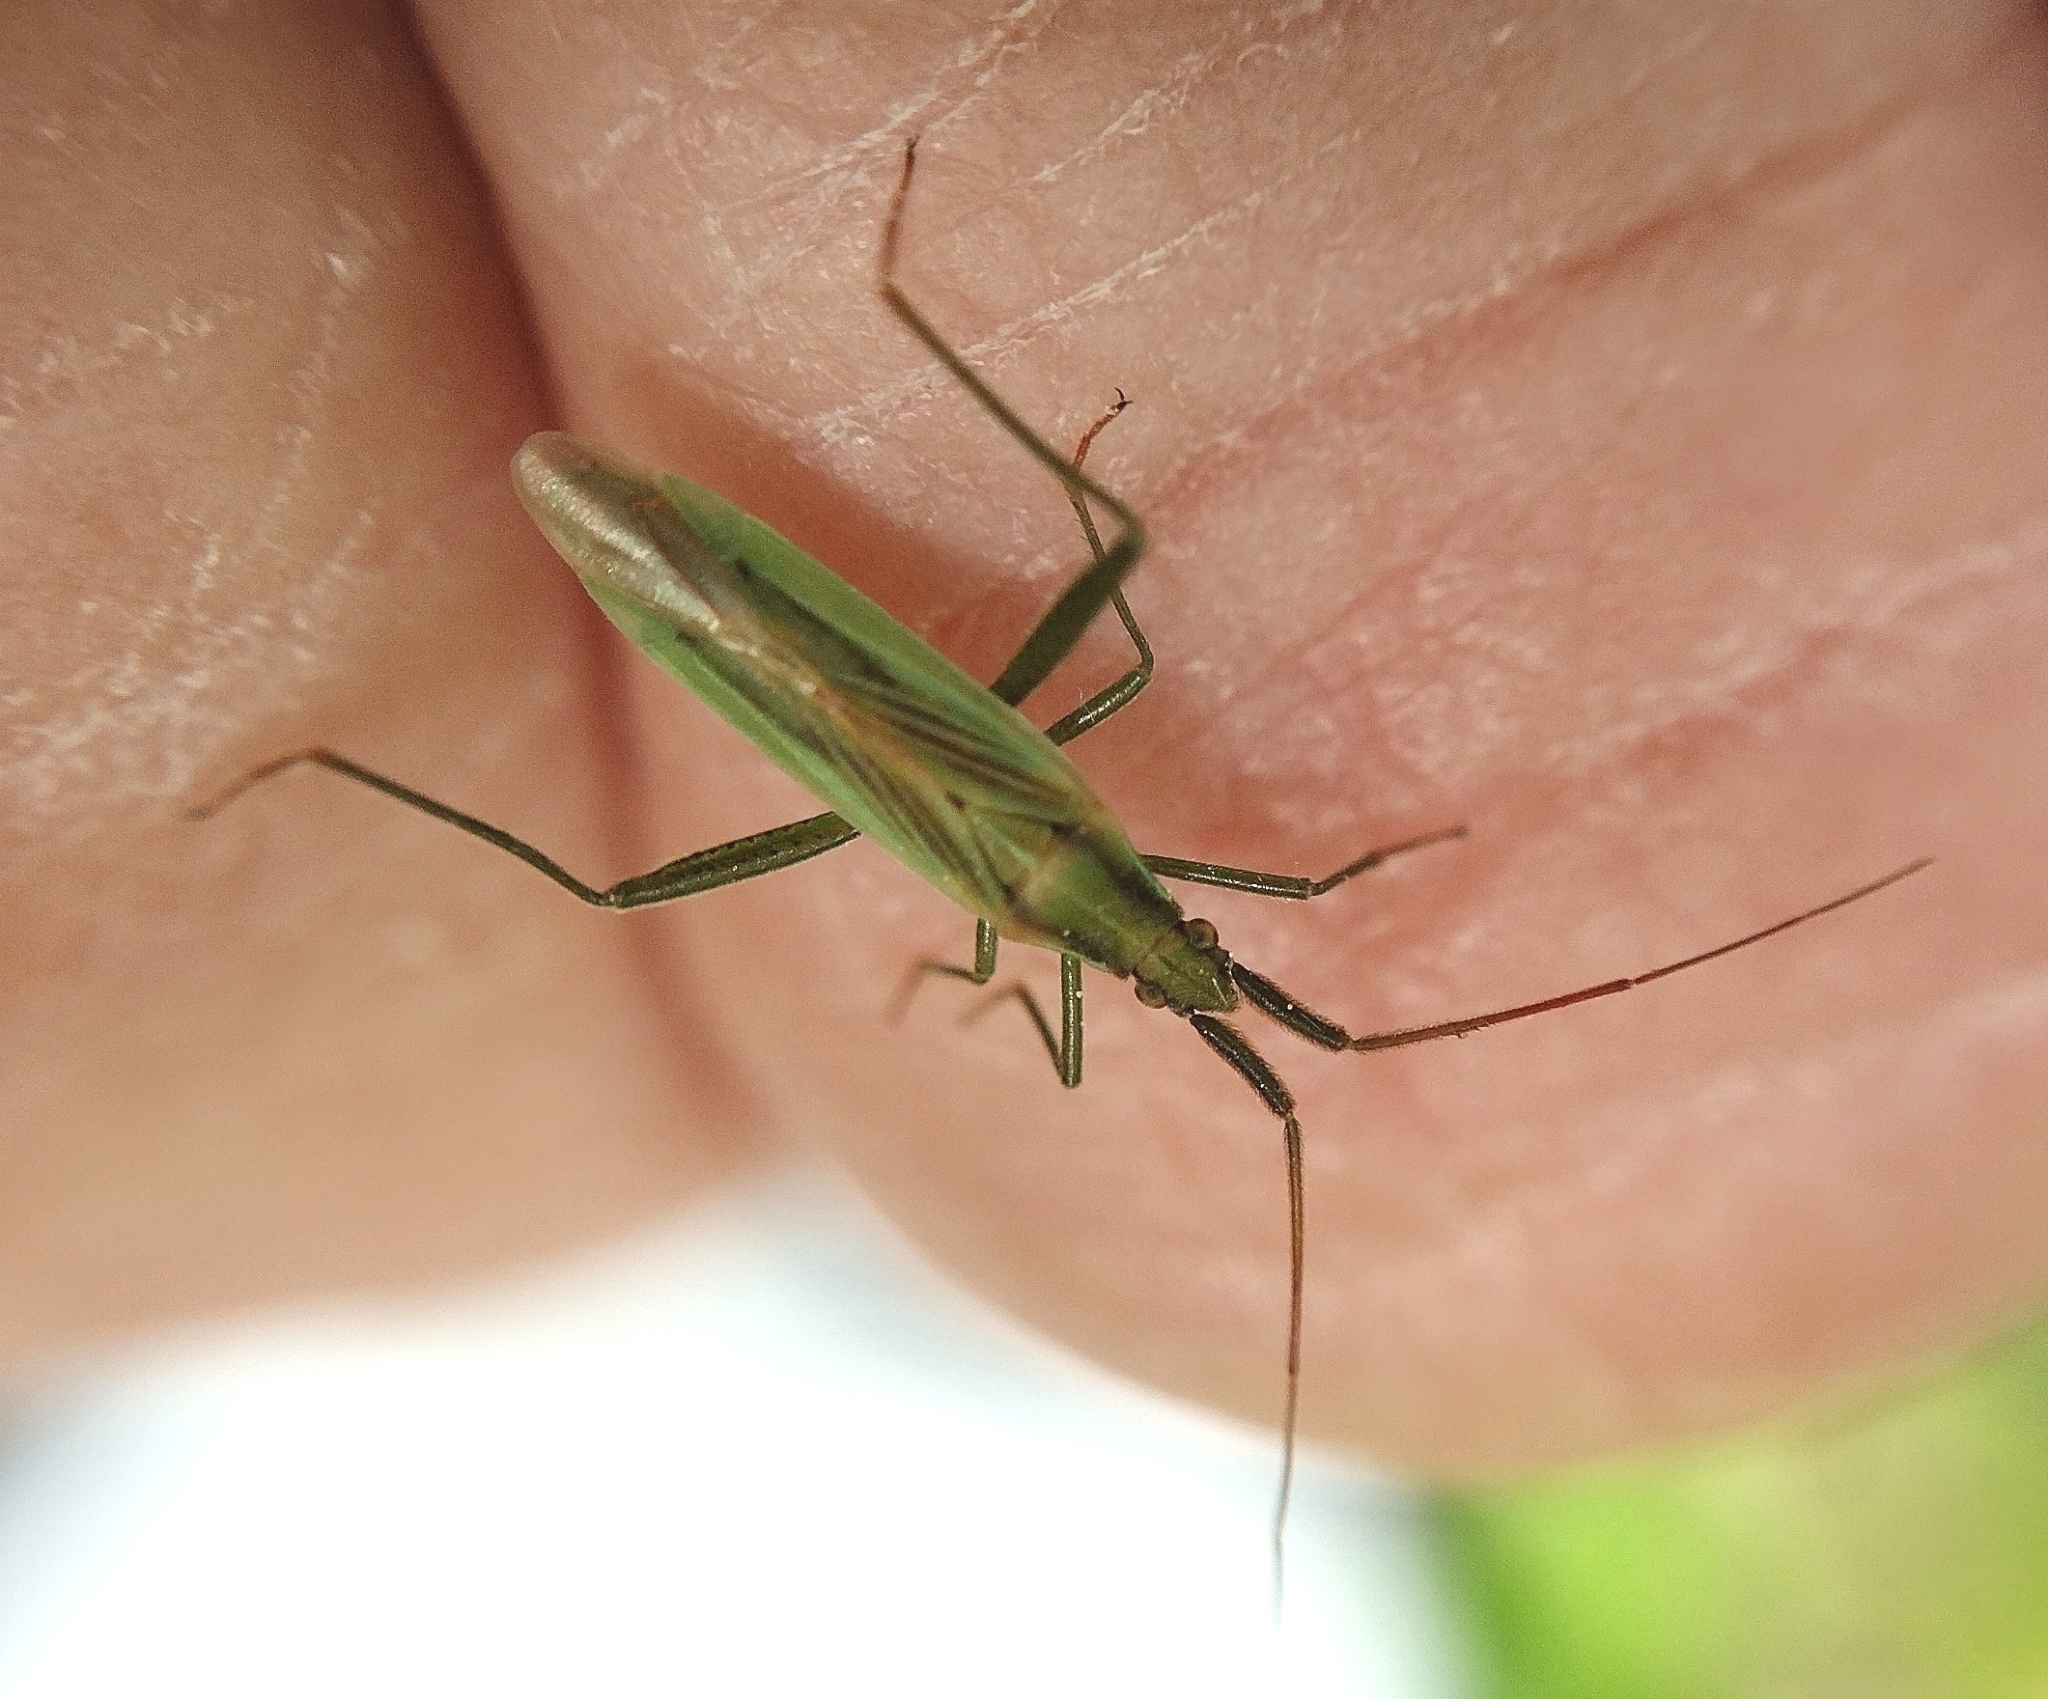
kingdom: Animalia
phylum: Arthropoda
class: Insecta
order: Hemiptera
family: Miridae
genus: Stenodema
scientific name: Stenodema laevigata
